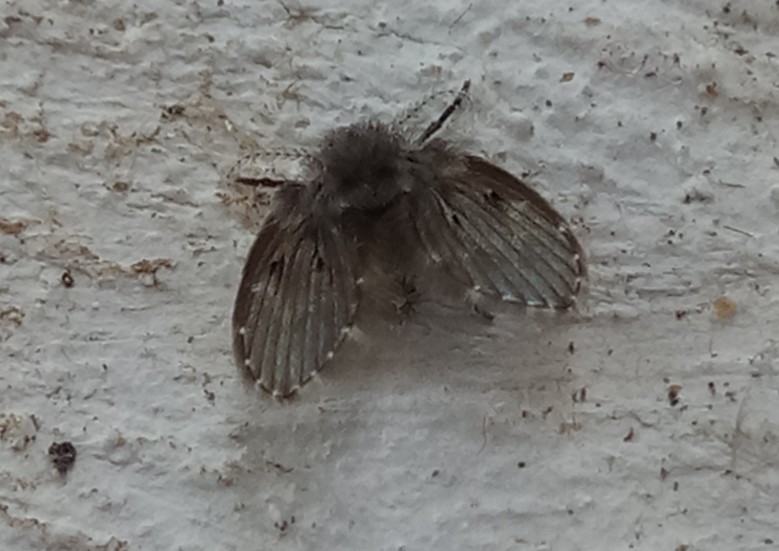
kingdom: Animalia
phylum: Arthropoda
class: Insecta
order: Diptera
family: Psychodidae
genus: Clogmia
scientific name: Clogmia albipunctatus
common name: White-spotted moth fly
